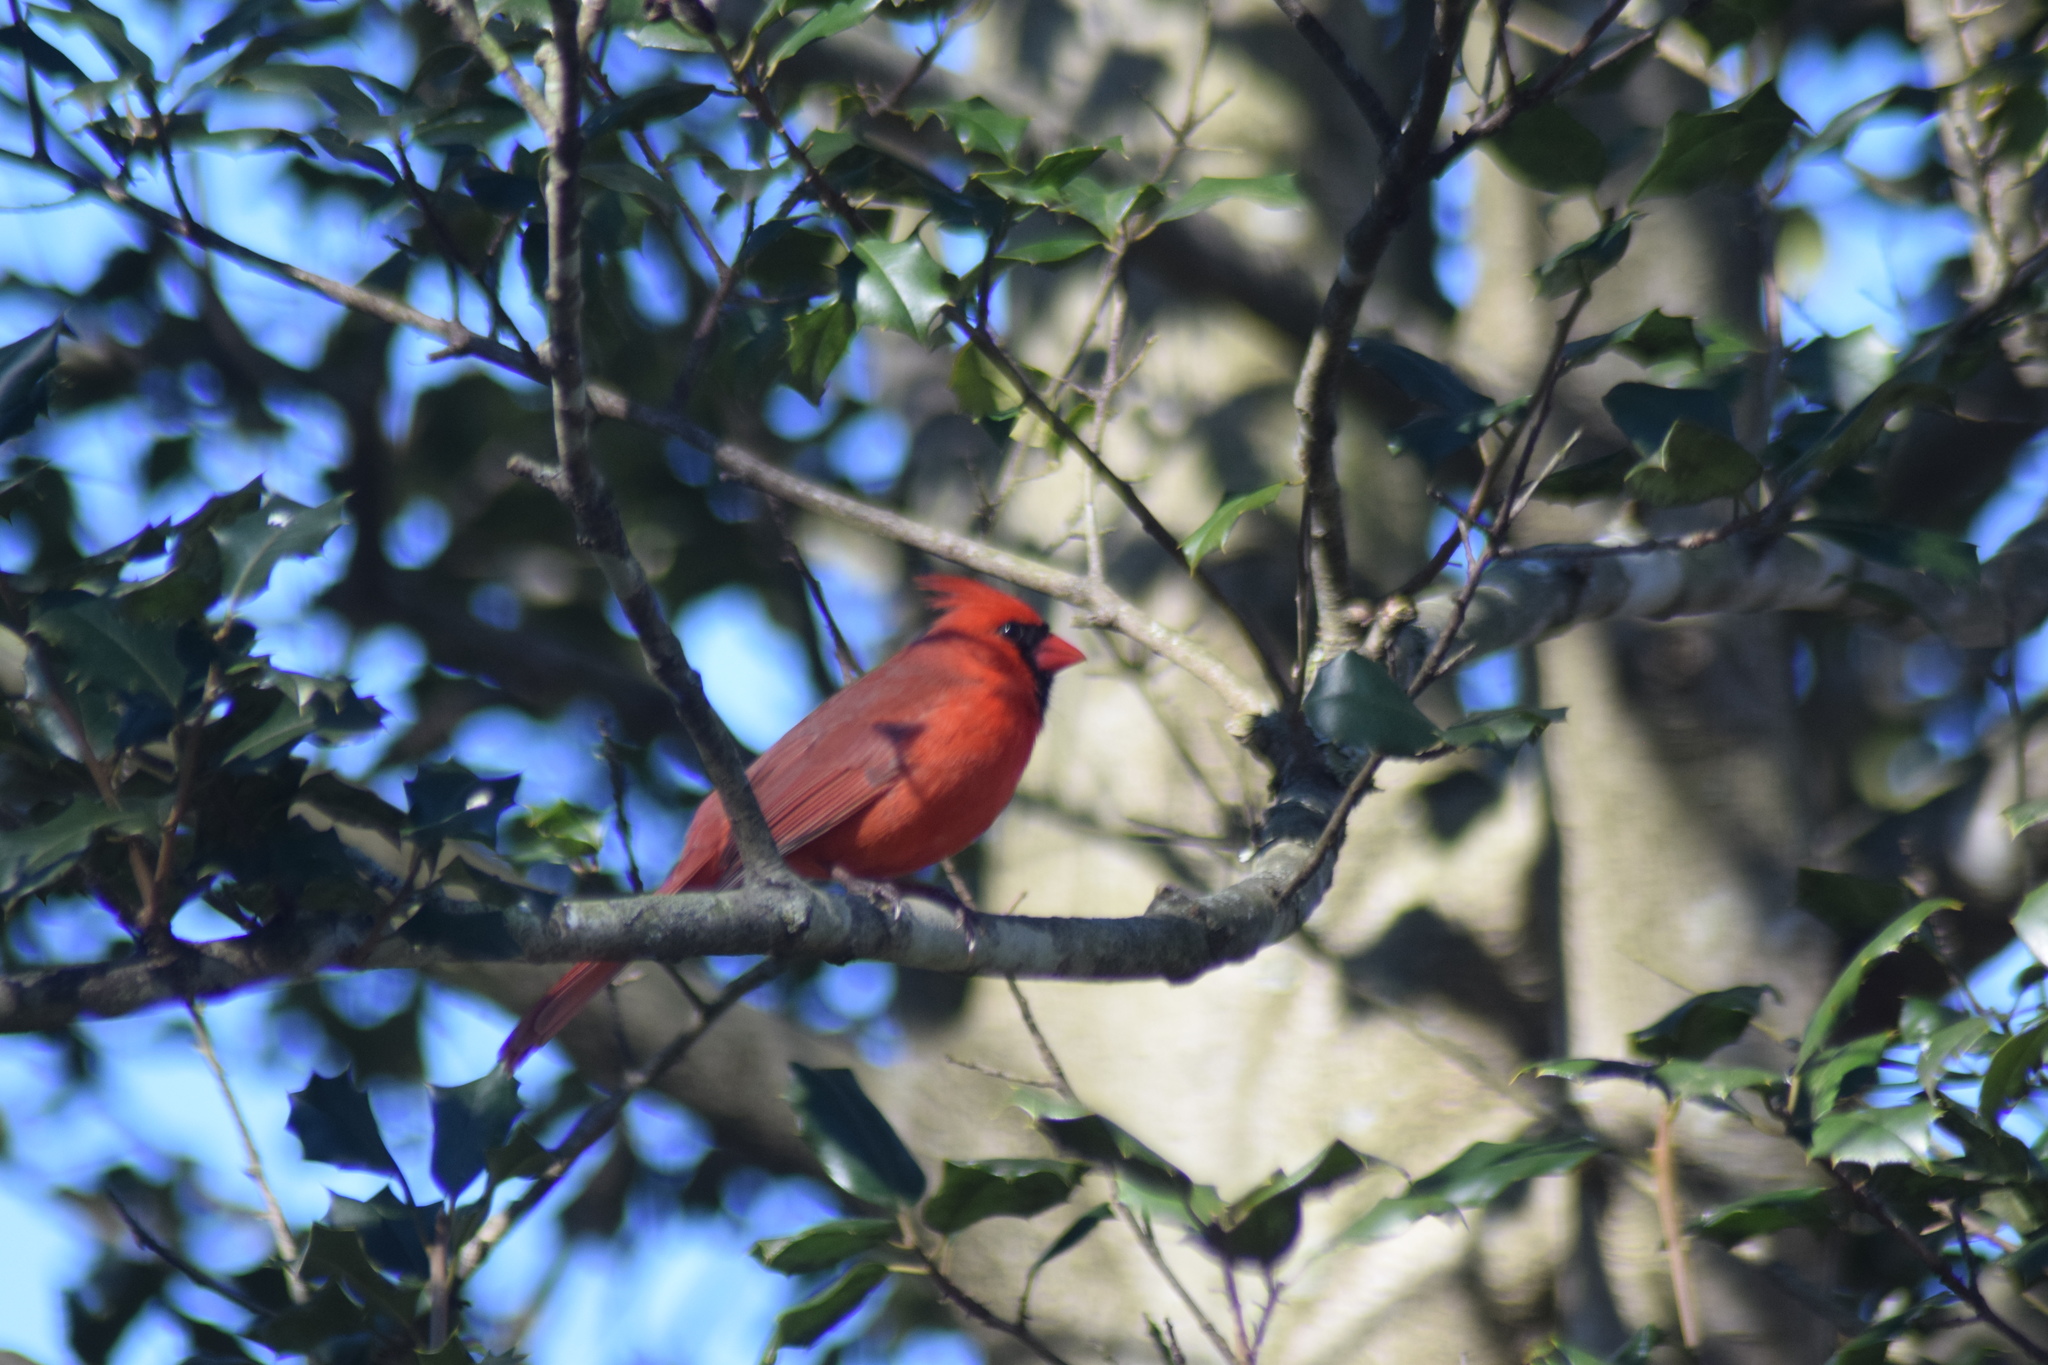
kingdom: Animalia
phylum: Chordata
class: Aves
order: Passeriformes
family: Cardinalidae
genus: Cardinalis
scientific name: Cardinalis cardinalis
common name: Northern cardinal
